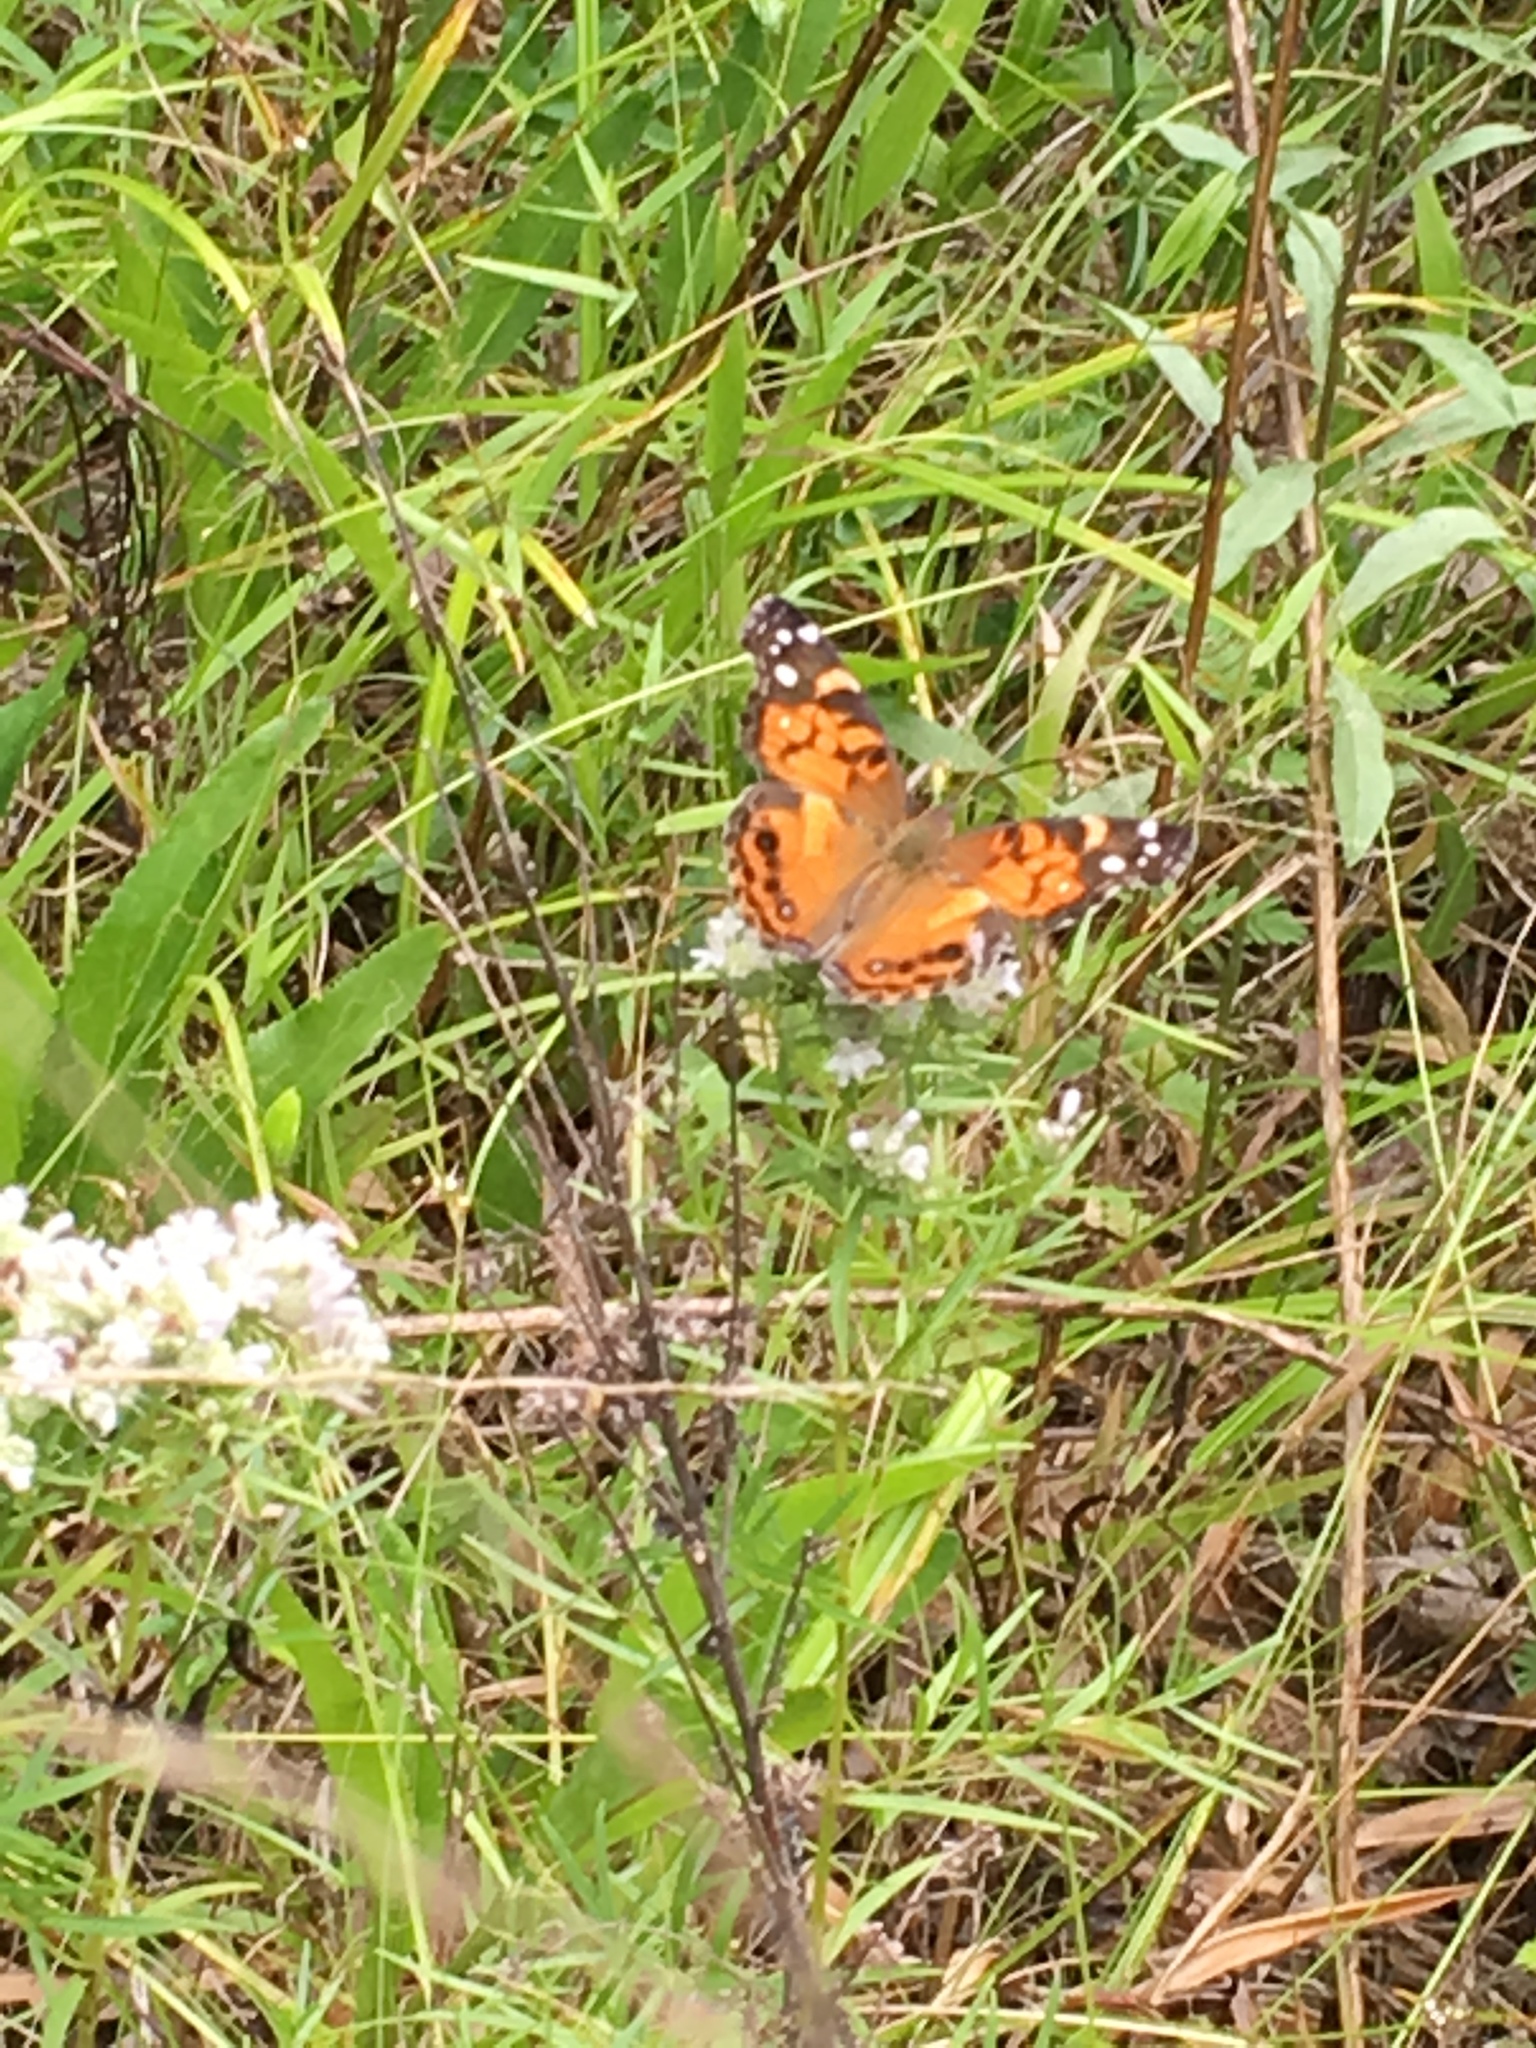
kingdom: Animalia
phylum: Arthropoda
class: Insecta
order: Lepidoptera
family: Nymphalidae
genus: Vanessa
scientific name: Vanessa virginiensis
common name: American lady
